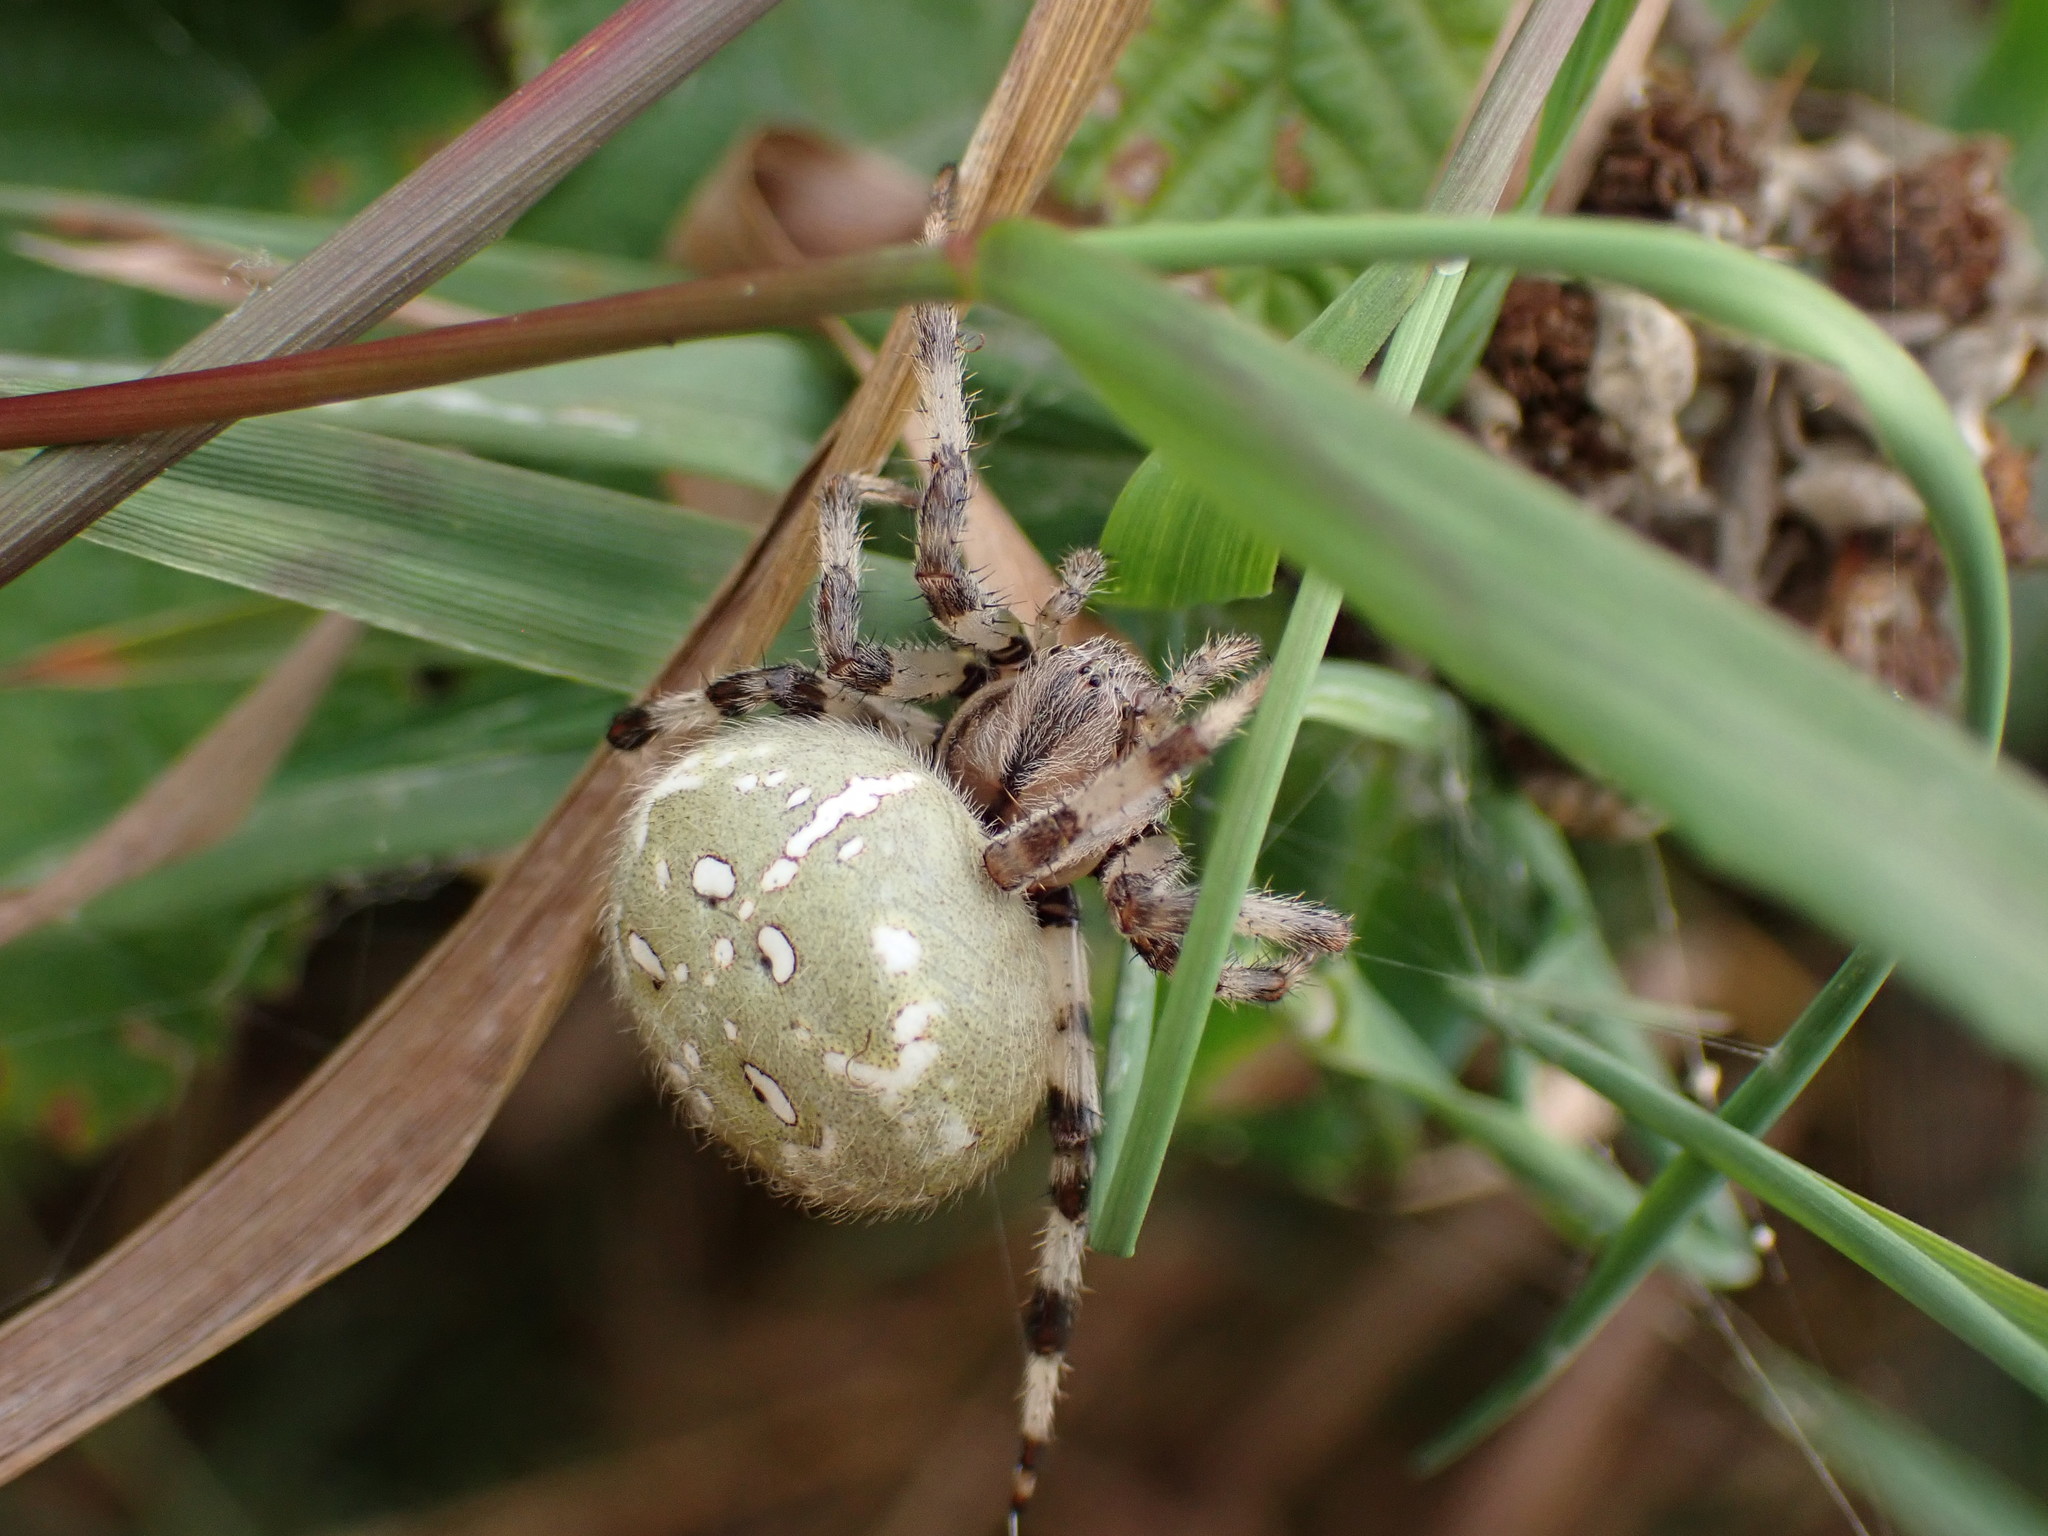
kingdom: Animalia
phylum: Arthropoda
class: Arachnida
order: Araneae
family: Araneidae
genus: Araneus
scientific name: Araneus quadratus
